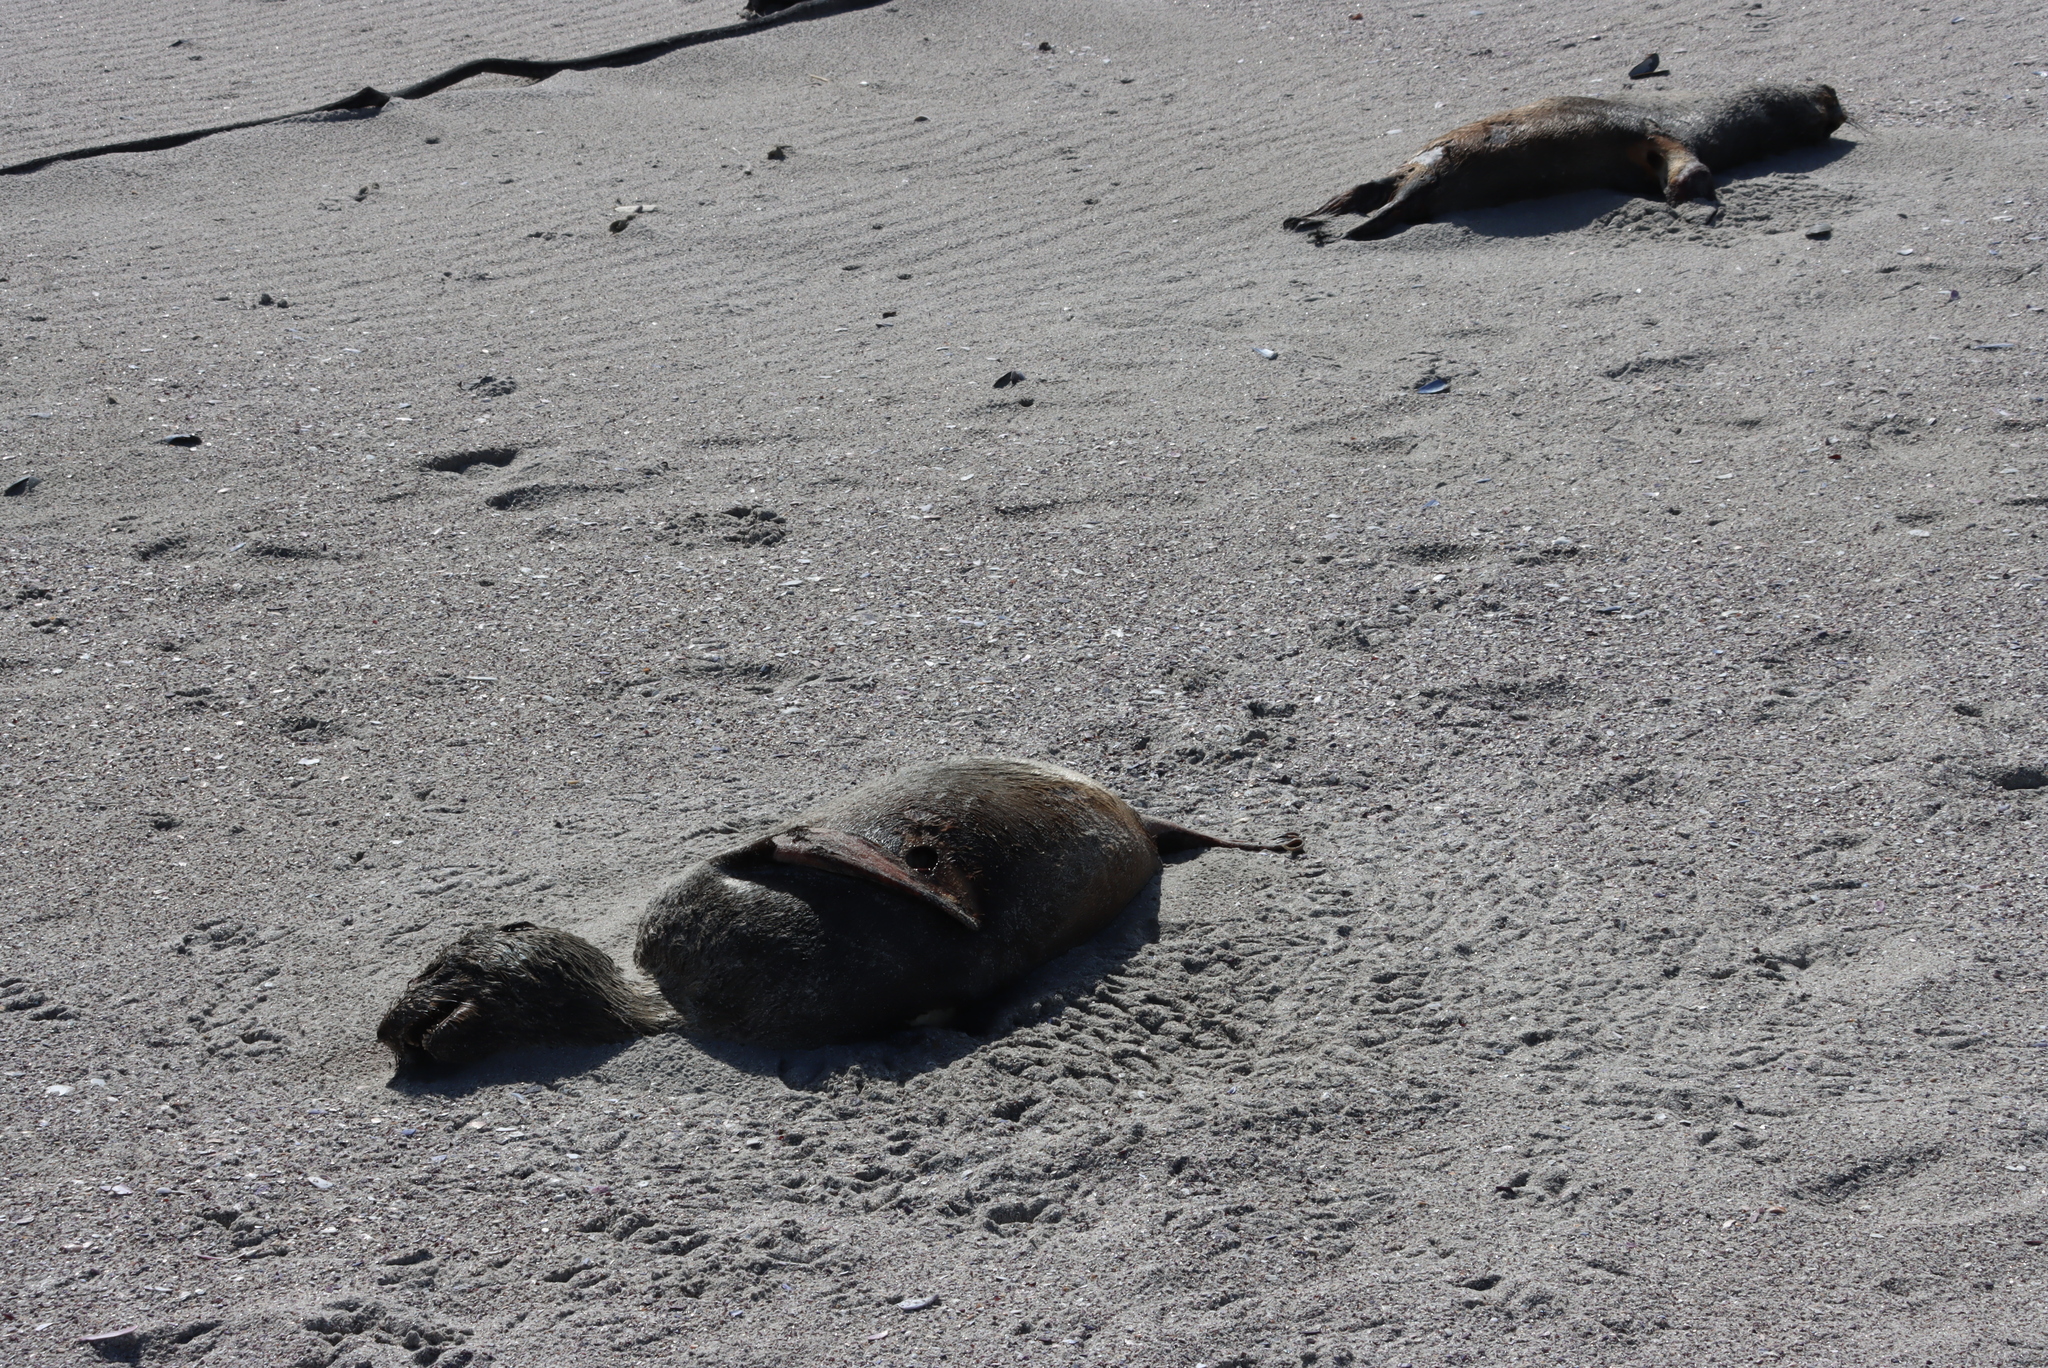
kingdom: Animalia
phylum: Chordata
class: Mammalia
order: Carnivora
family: Otariidae
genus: Arctocephalus
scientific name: Arctocephalus pusillus
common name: Brown fur seal
